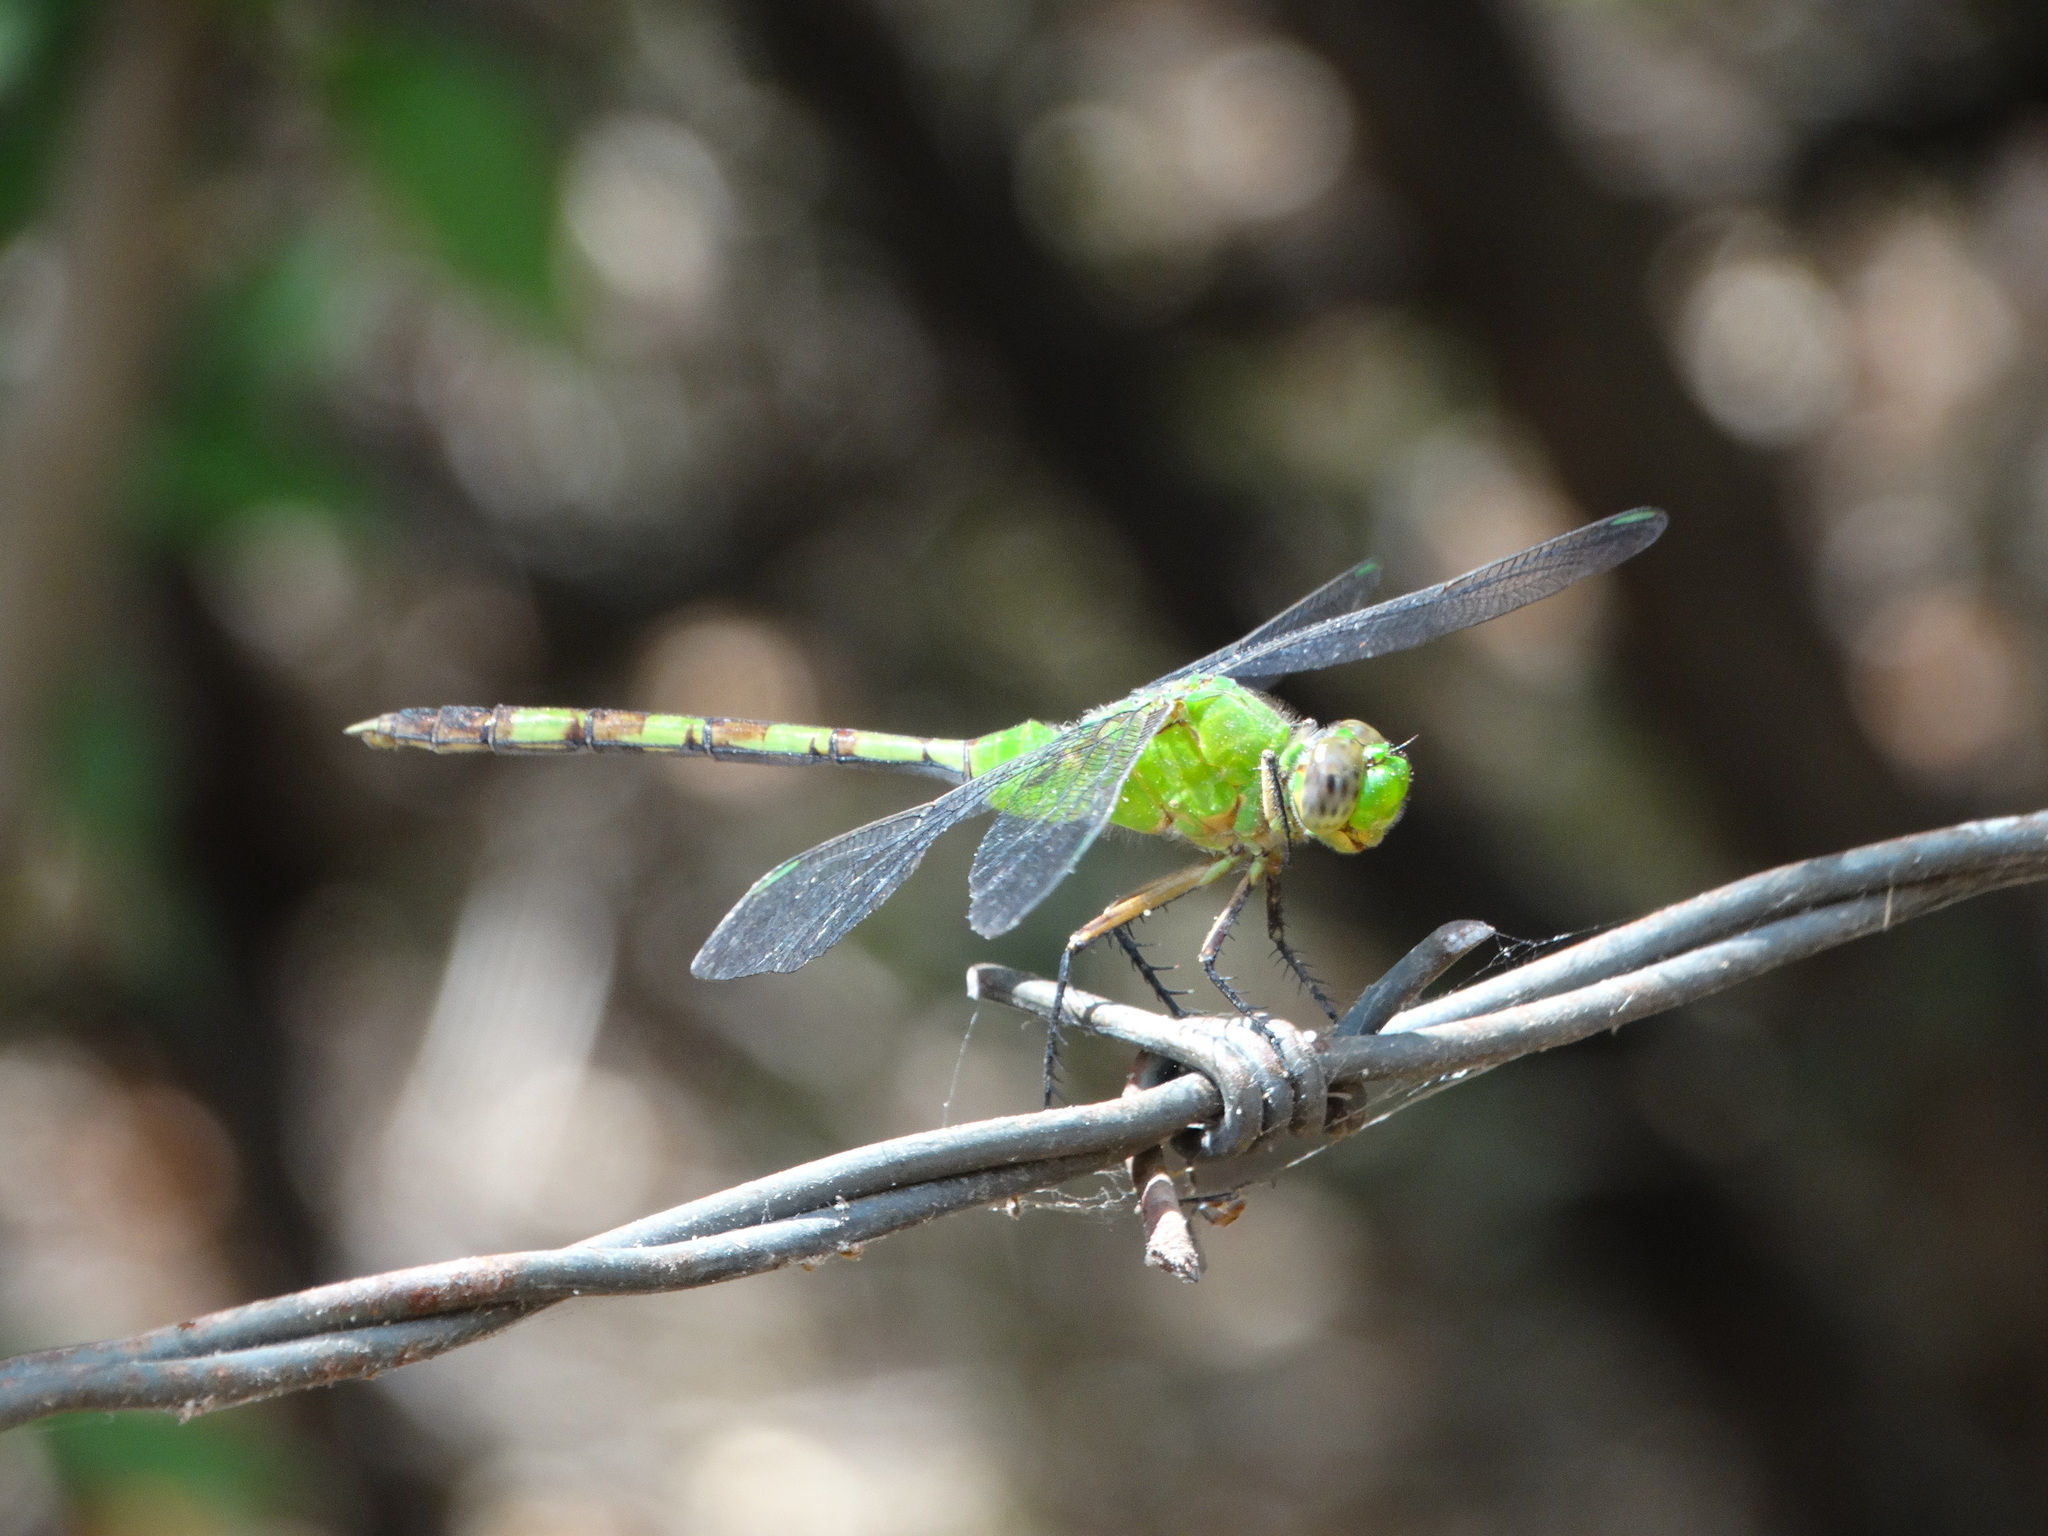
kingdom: Animalia
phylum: Arthropoda
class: Insecta
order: Odonata
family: Libellulidae
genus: Erythemis
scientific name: Erythemis vesiculosa
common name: Great pondhawk
